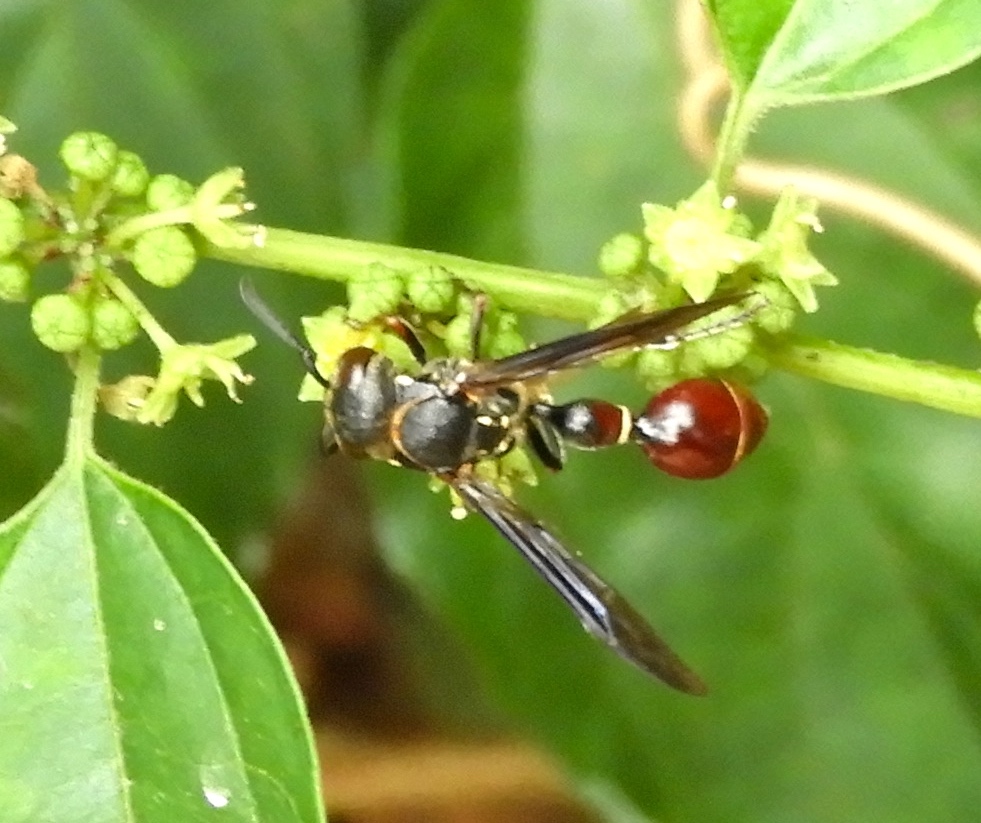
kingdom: Animalia
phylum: Arthropoda
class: Insecta
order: Hymenoptera
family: Eumenidae
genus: Zethus
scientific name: Zethus analis
